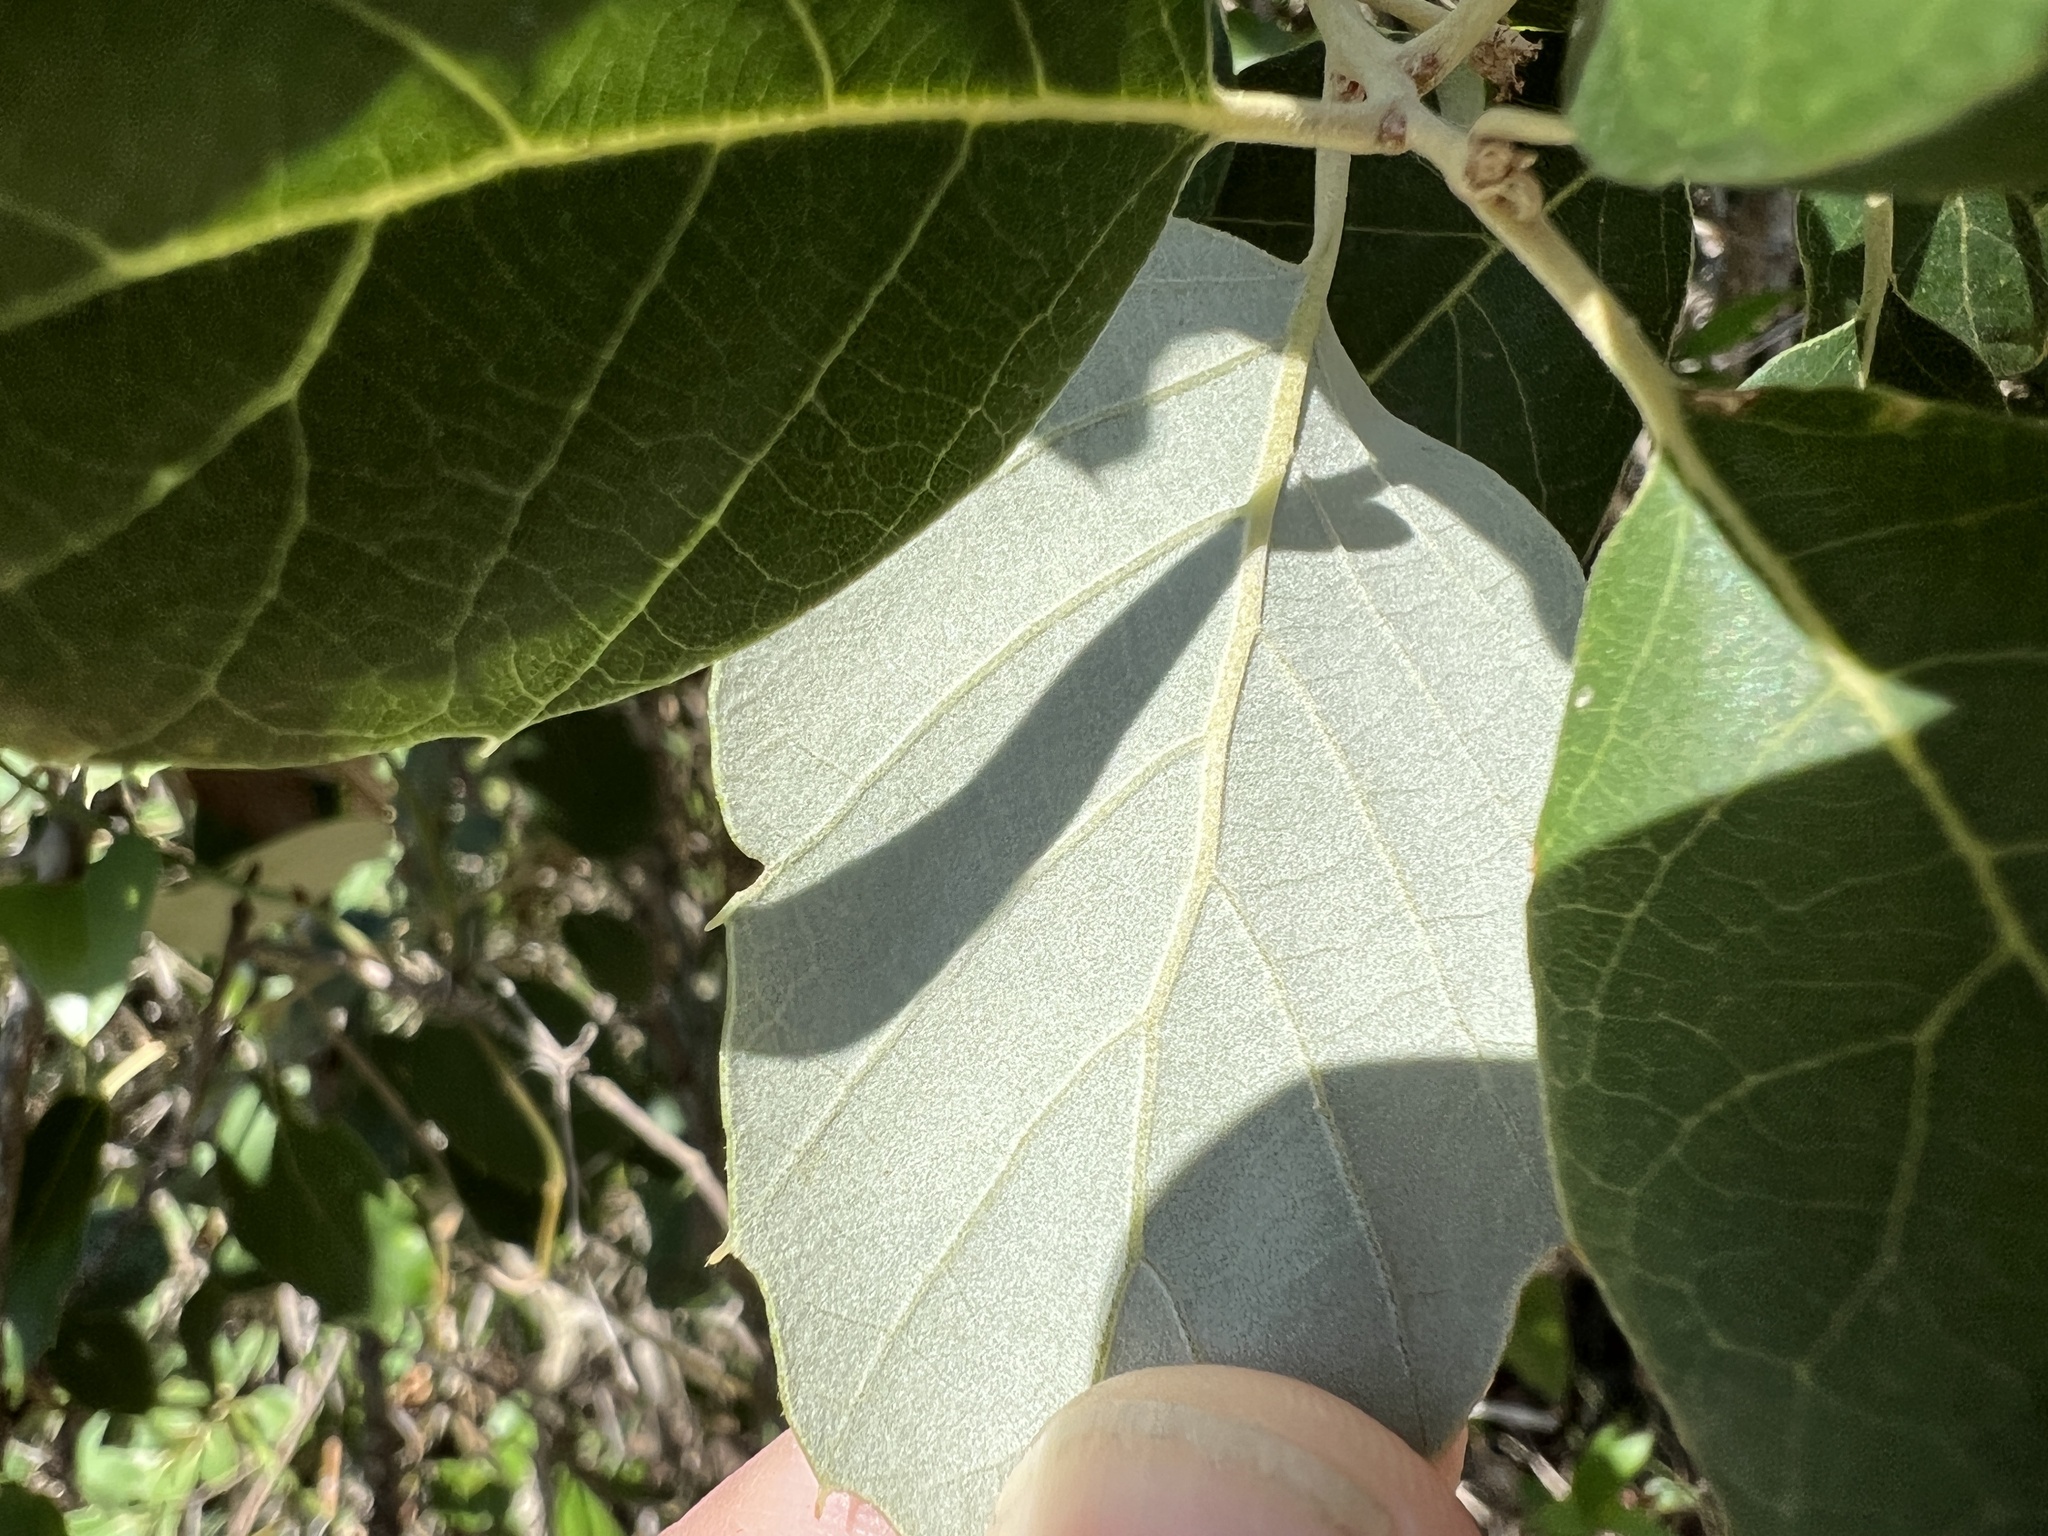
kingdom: Plantae
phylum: Tracheophyta
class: Magnoliopsida
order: Fagales
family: Fagaceae
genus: Quercus
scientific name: Quercus suber
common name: Cork oak
